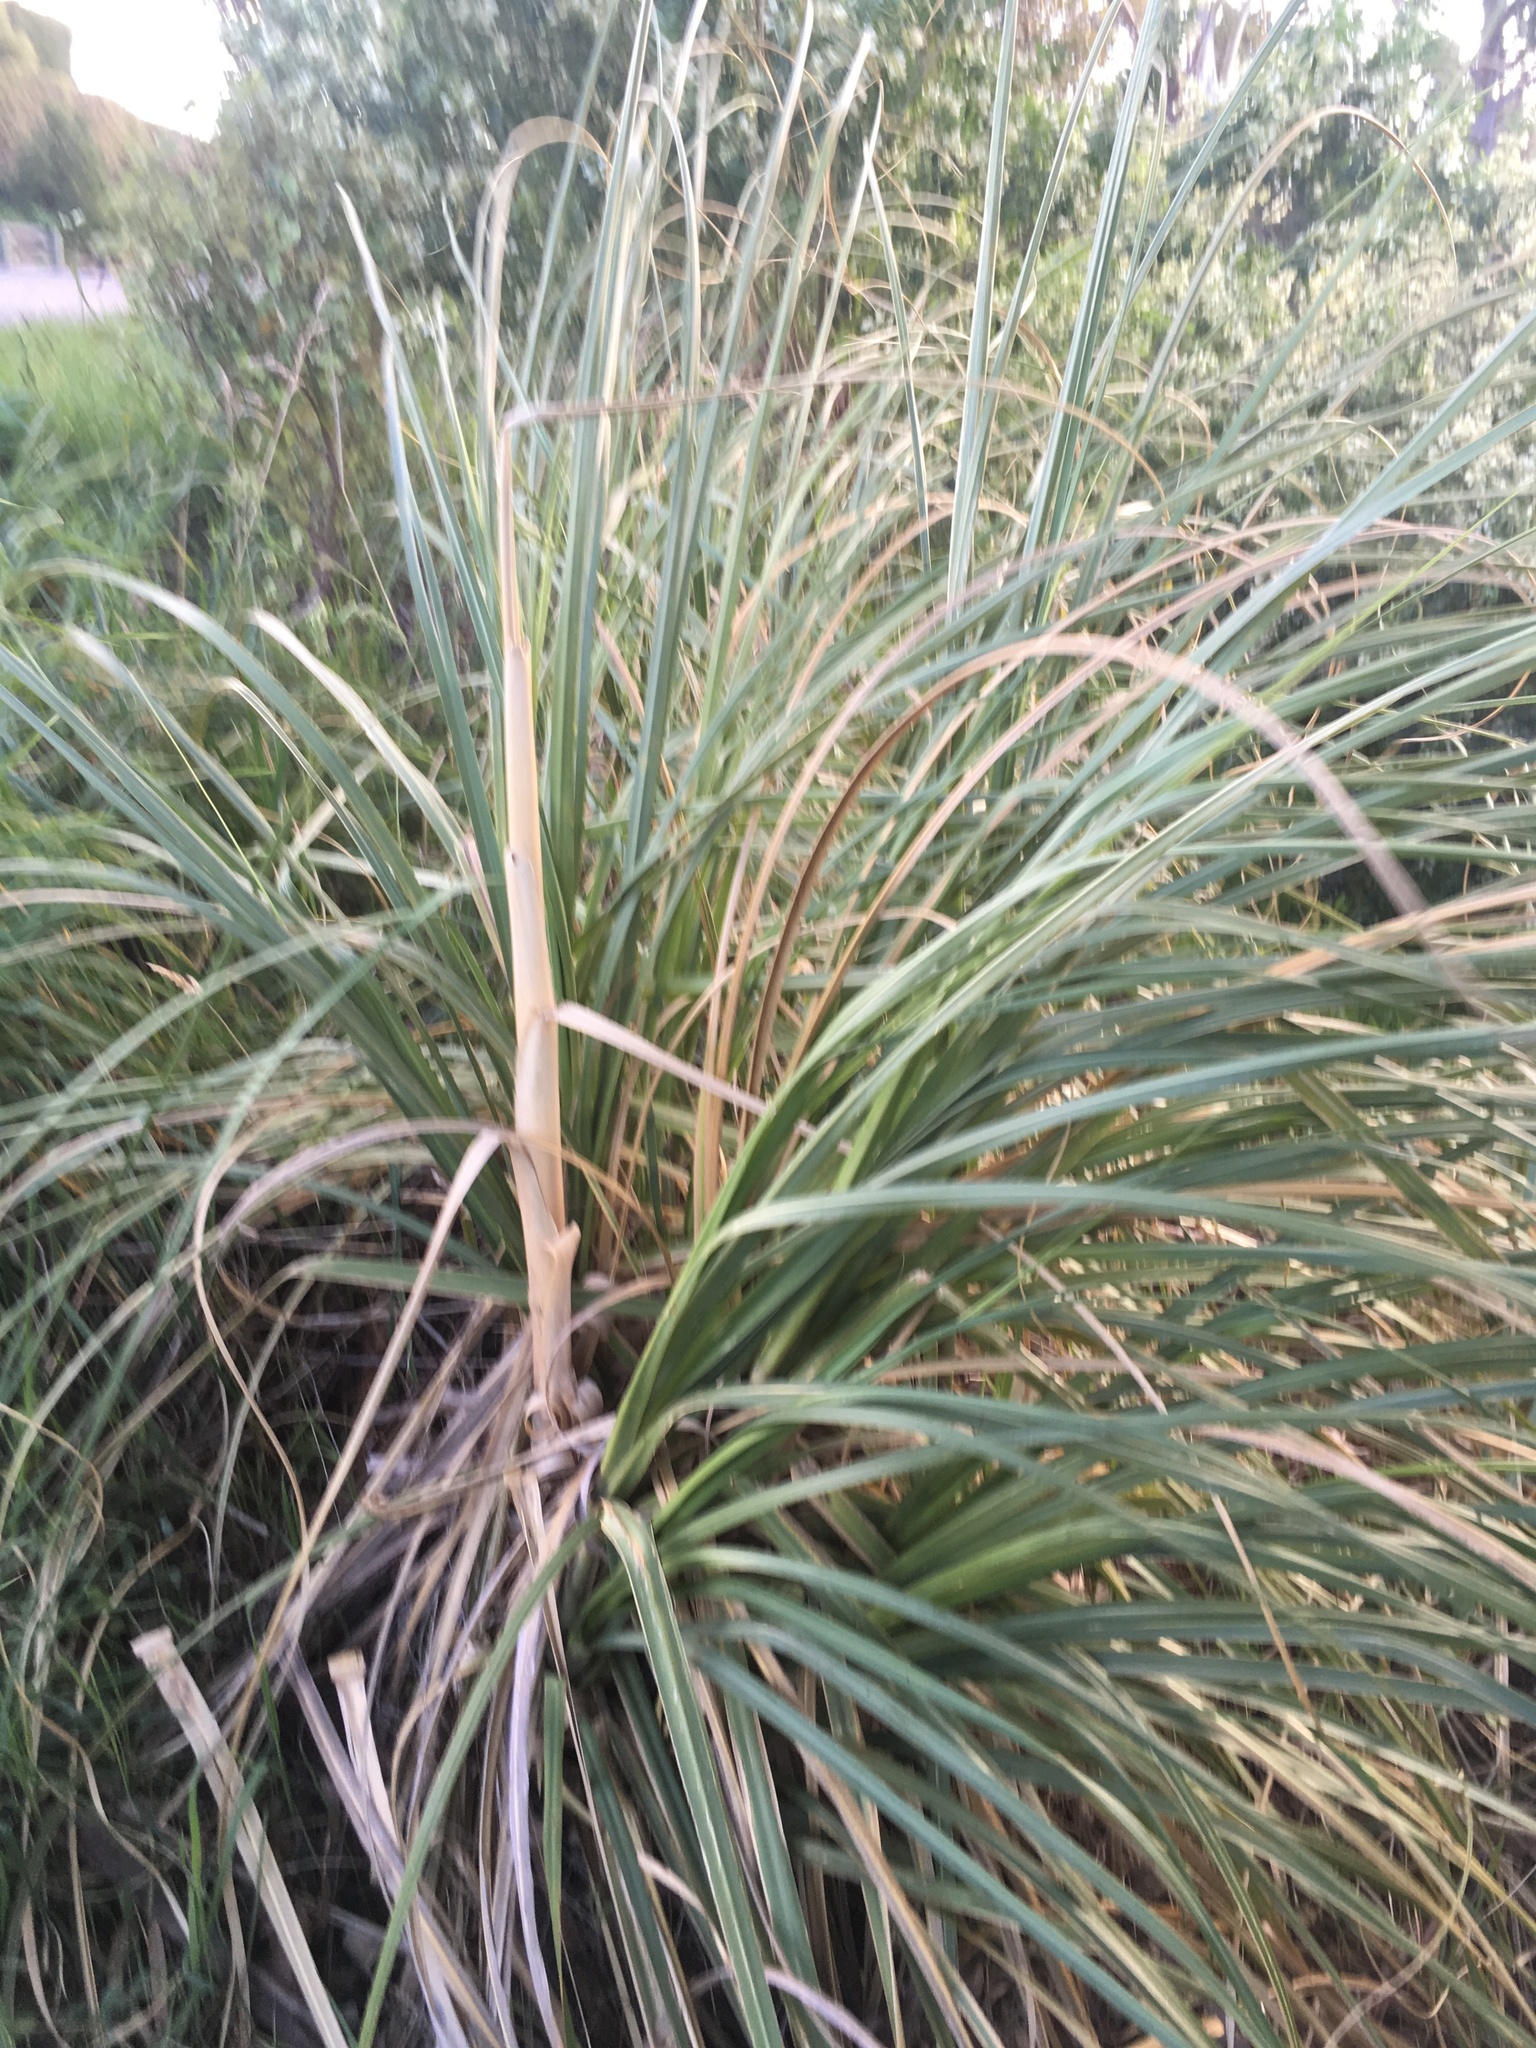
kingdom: Plantae
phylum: Tracheophyta
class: Liliopsida
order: Poales
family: Poaceae
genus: Cortaderia
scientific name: Cortaderia selloana
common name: Uruguayan pampas grass
